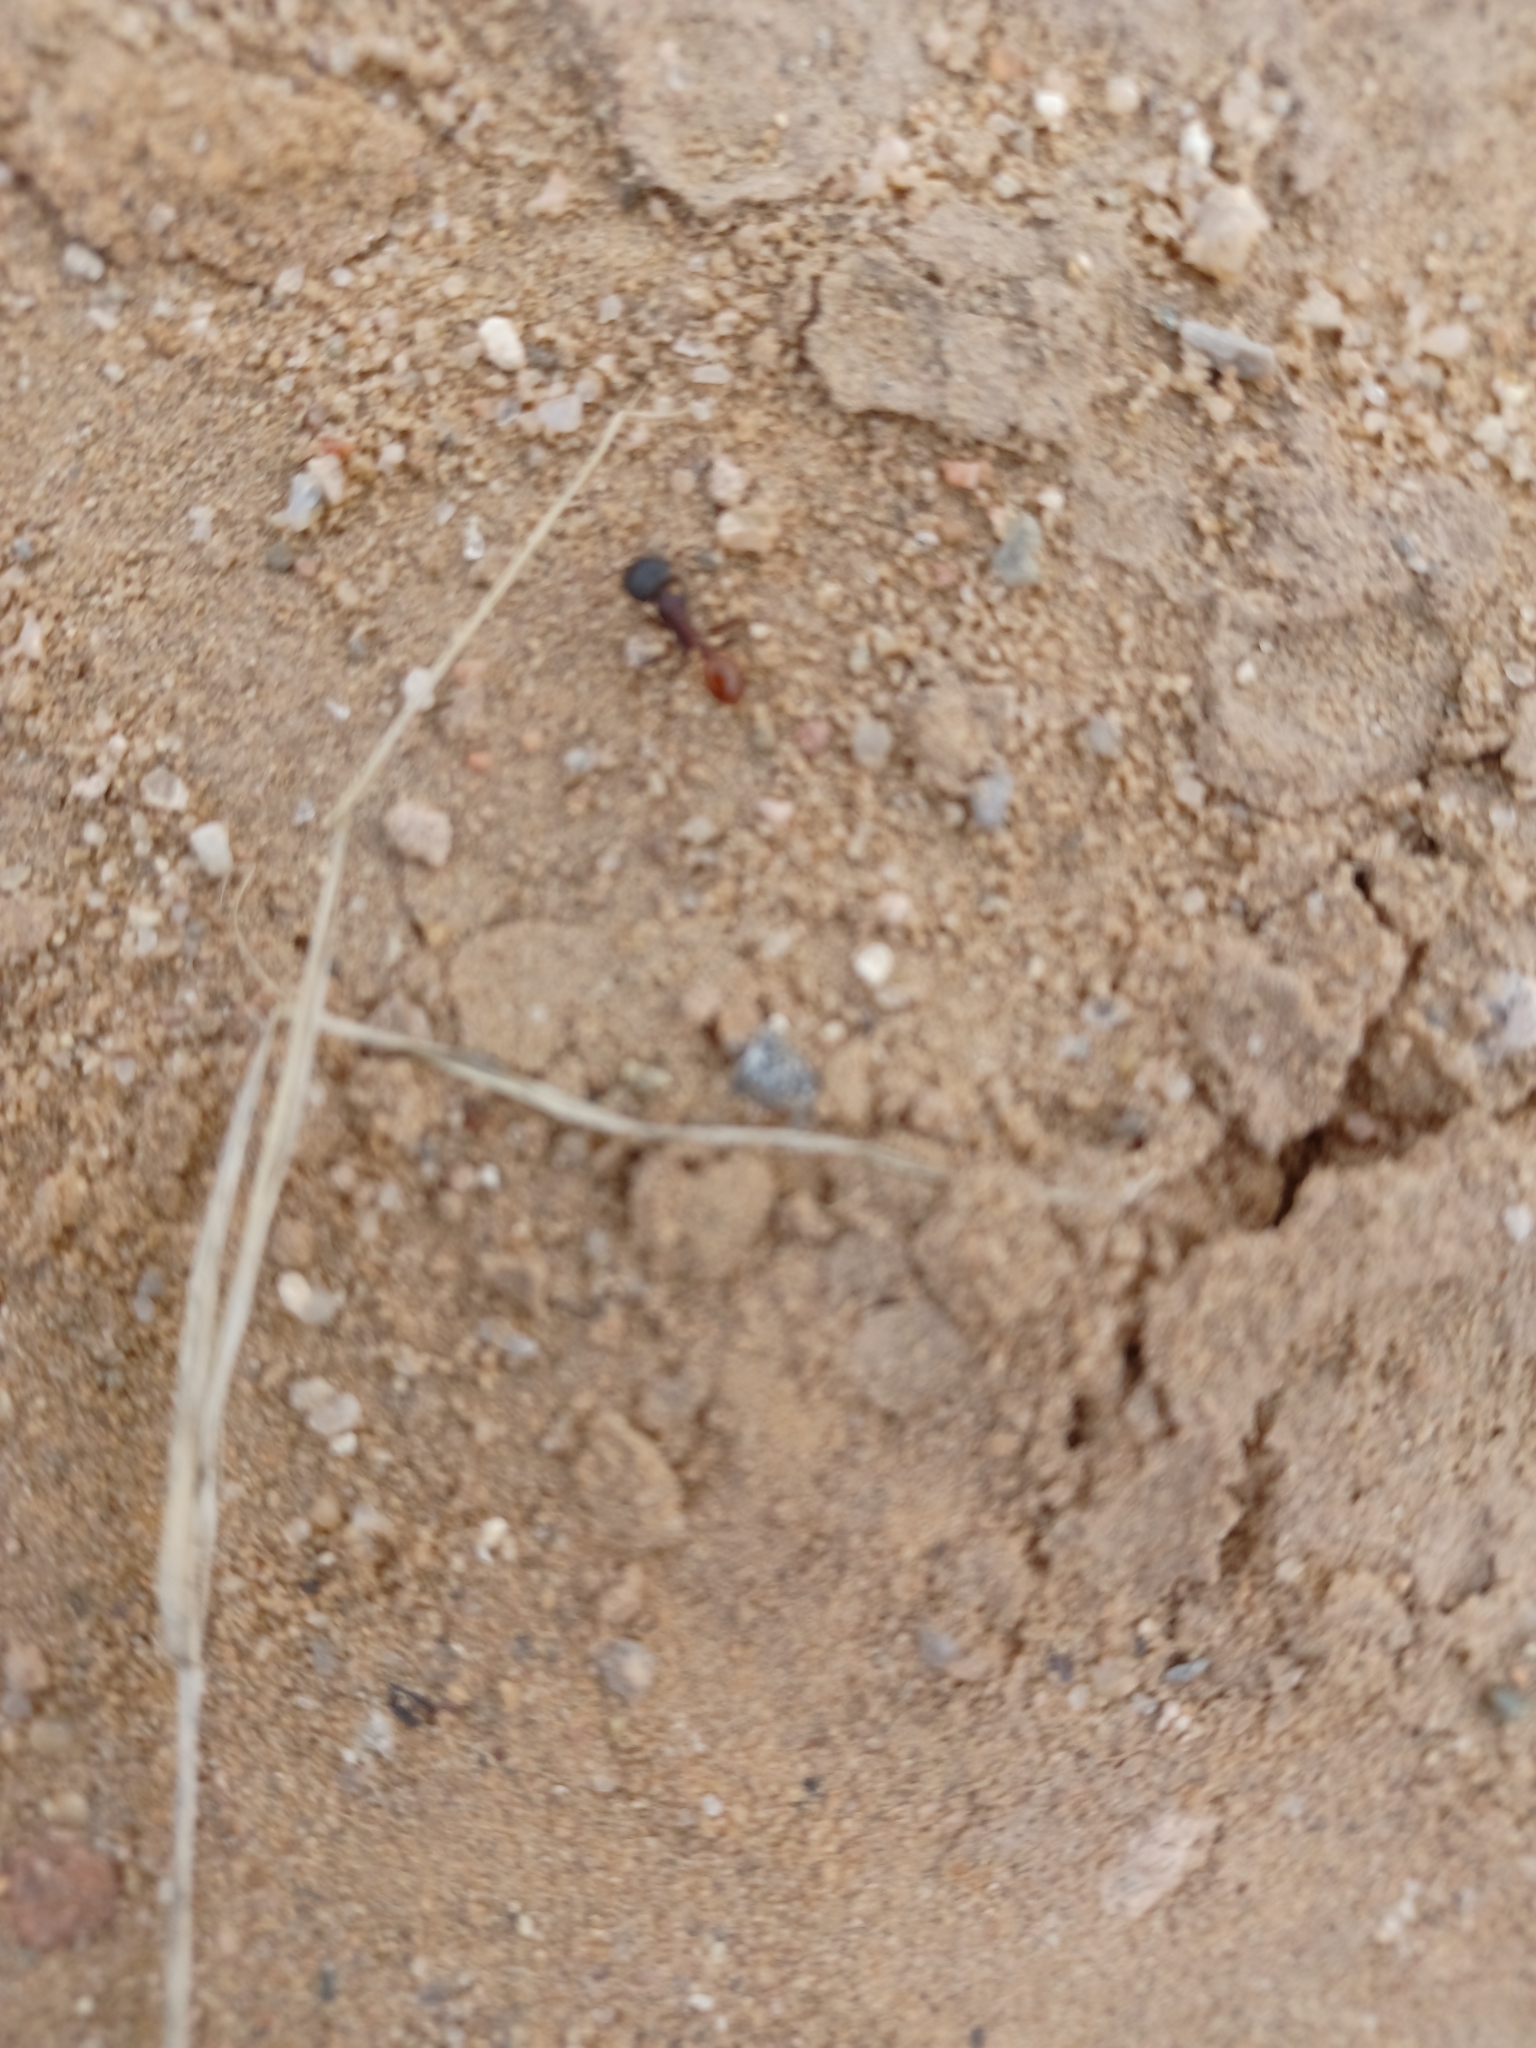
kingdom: Animalia
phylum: Arthropoda
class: Insecta
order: Hymenoptera
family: Formicidae
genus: Pogonomyrmex
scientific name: Pogonomyrmex rugosus
